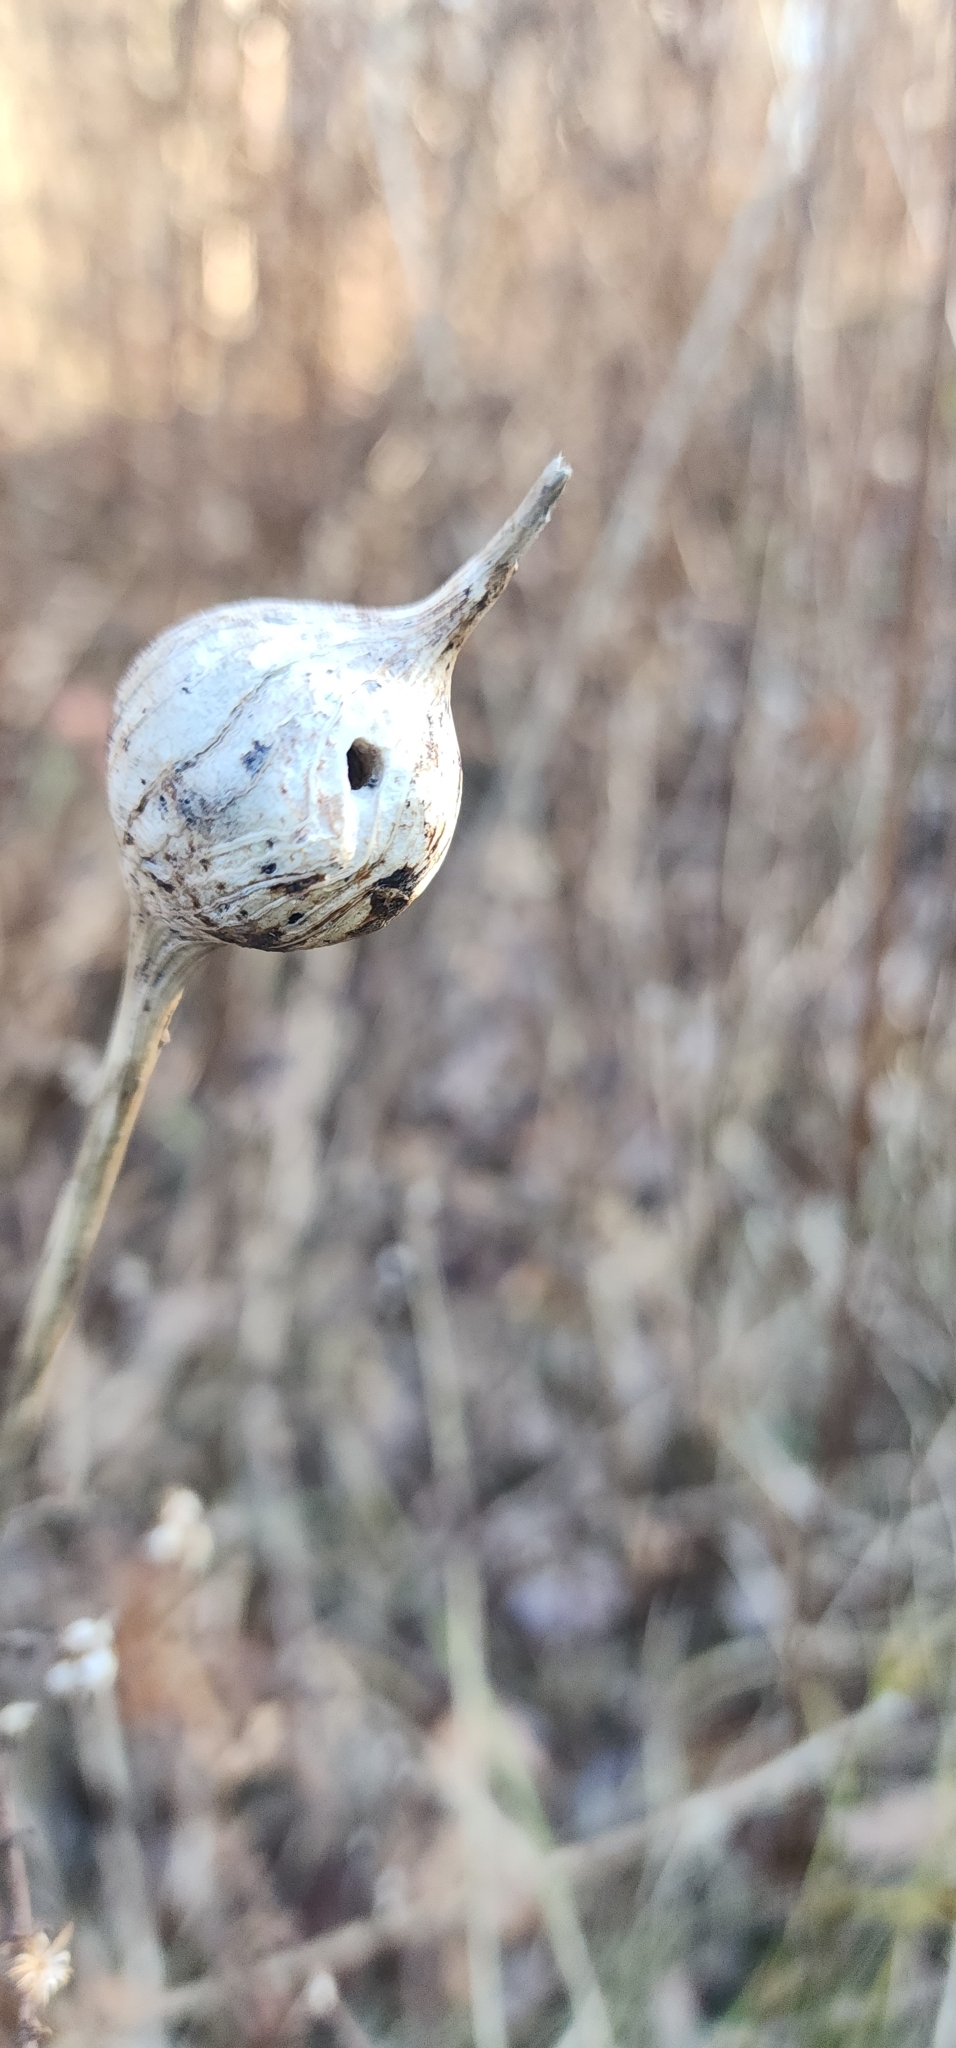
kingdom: Animalia
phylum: Arthropoda
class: Insecta
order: Diptera
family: Tephritidae
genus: Eurosta
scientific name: Eurosta solidaginis
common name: Goldenrod gall fly
